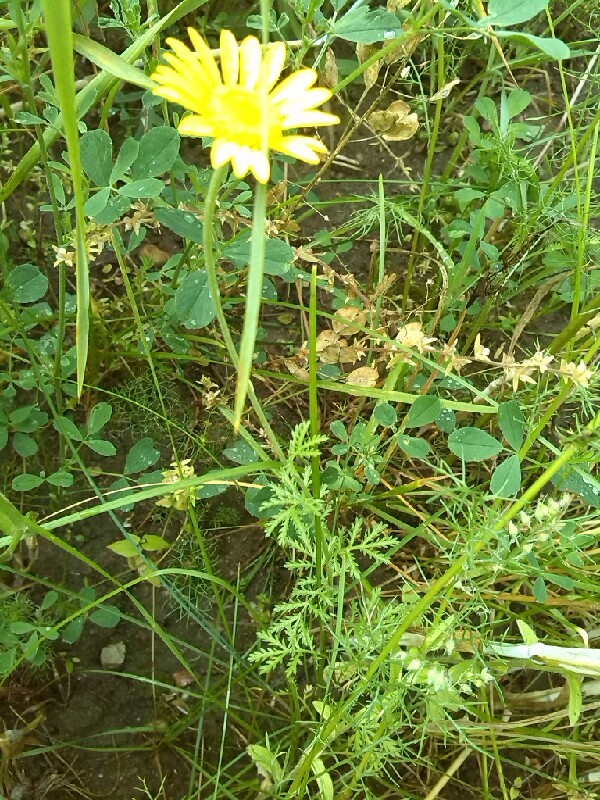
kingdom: Plantae
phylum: Tracheophyta
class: Magnoliopsida
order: Asterales
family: Asteraceae
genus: Cota
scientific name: Cota tinctoria
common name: Golden chamomile
